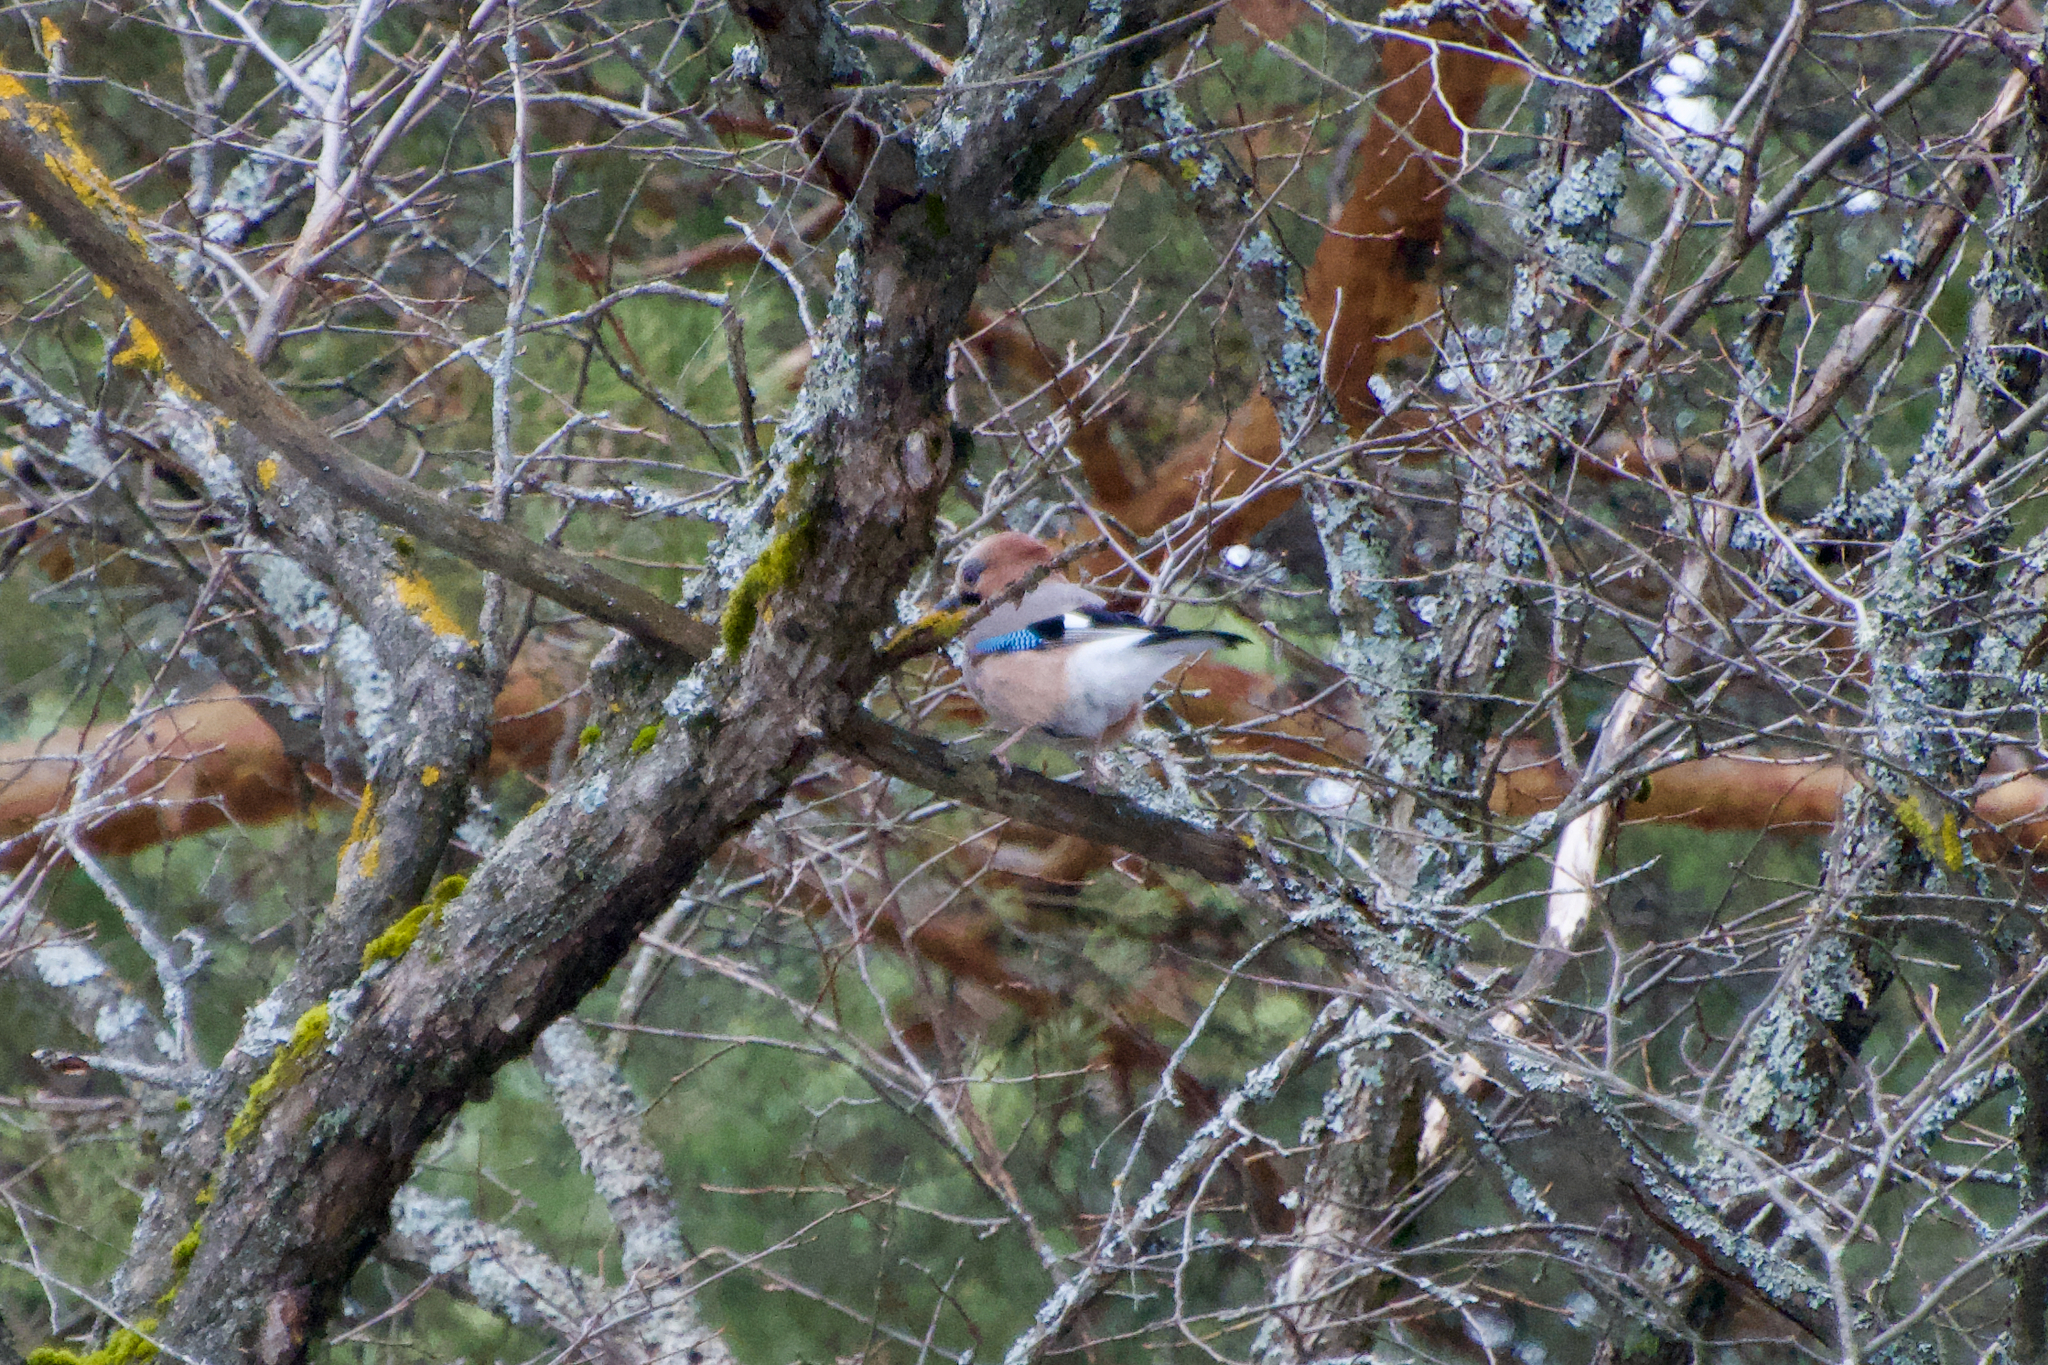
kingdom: Animalia
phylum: Chordata
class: Aves
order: Passeriformes
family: Corvidae
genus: Garrulus
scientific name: Garrulus glandarius
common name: Eurasian jay
